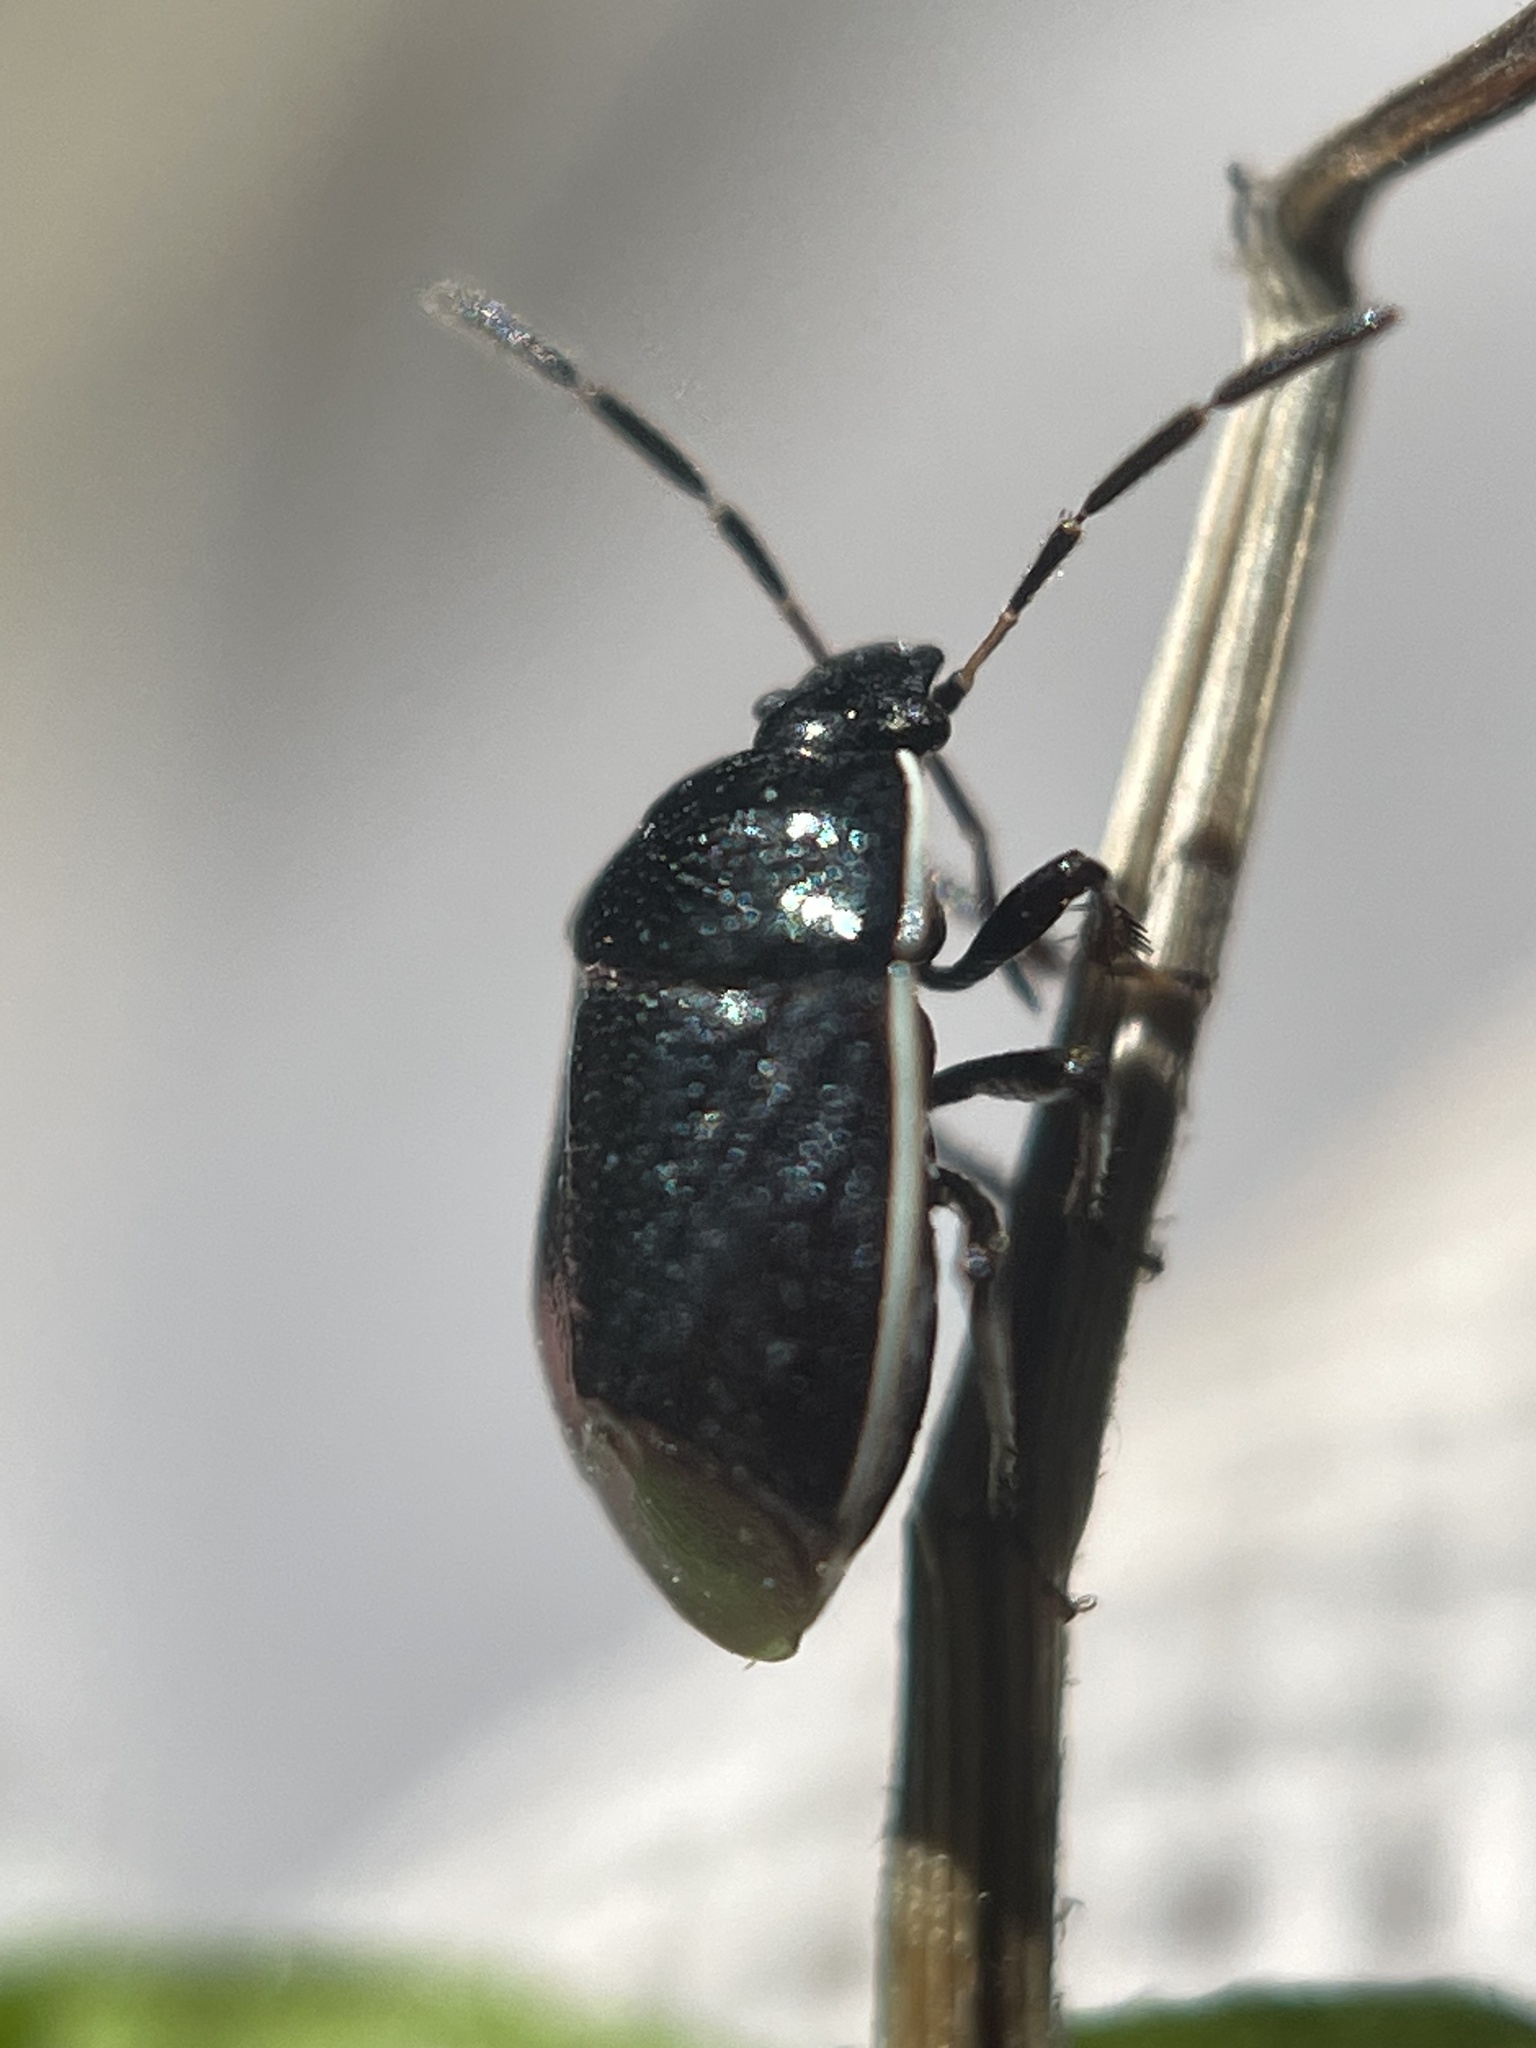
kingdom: Animalia
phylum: Arthropoda
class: Insecta
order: Hemiptera
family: Cydnidae
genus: Sehirus
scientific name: Sehirus cinctus
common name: White-margined burrower bug
